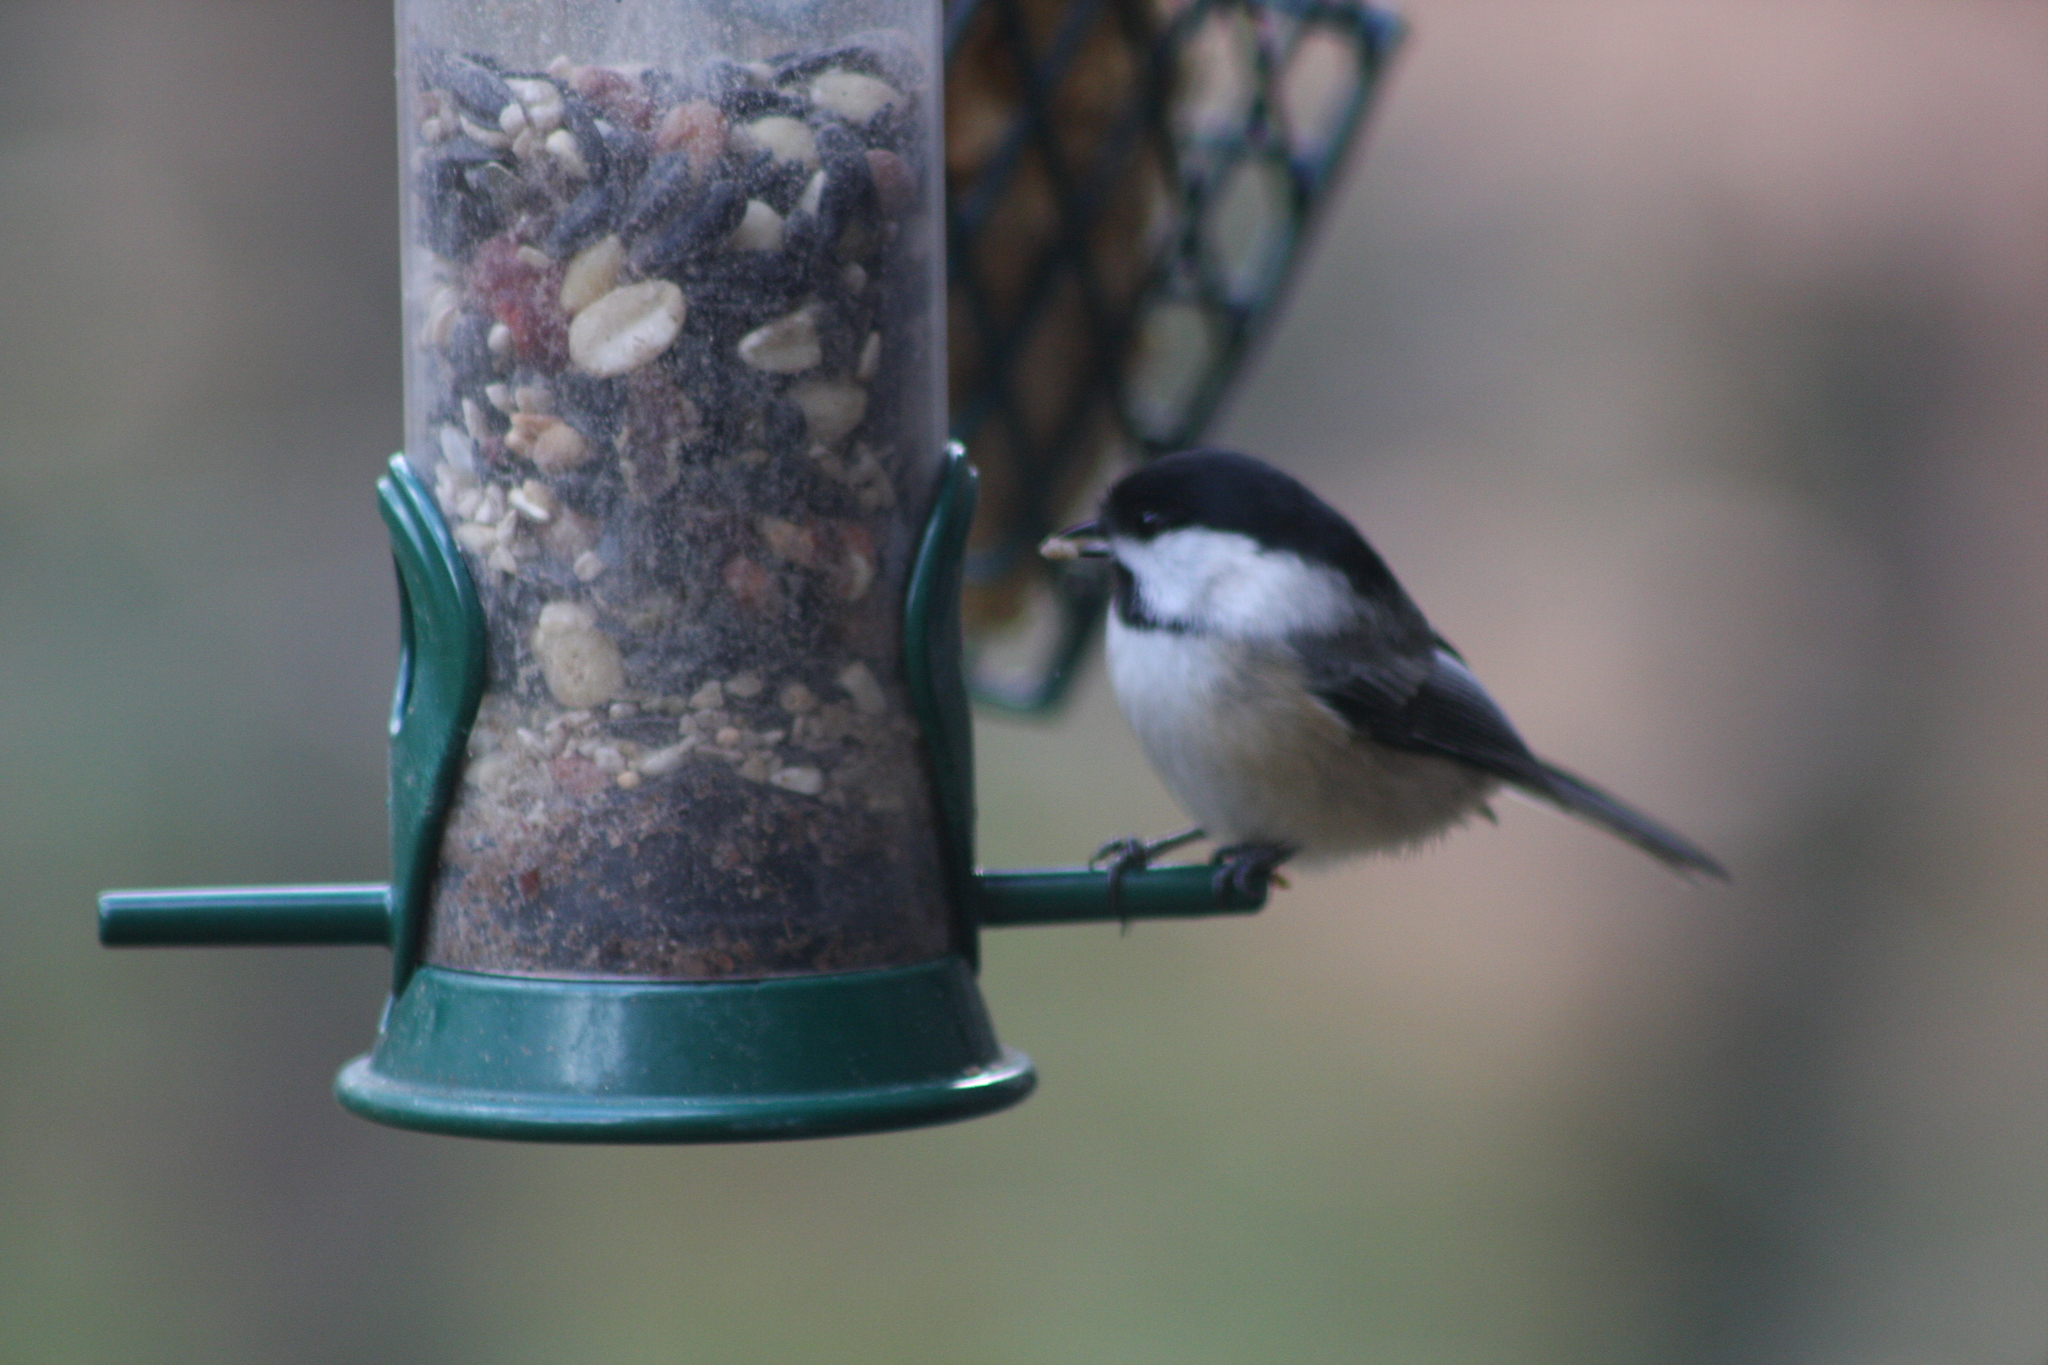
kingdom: Animalia
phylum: Chordata
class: Aves
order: Passeriformes
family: Paridae
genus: Poecile
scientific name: Poecile atricapillus
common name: Black-capped chickadee
